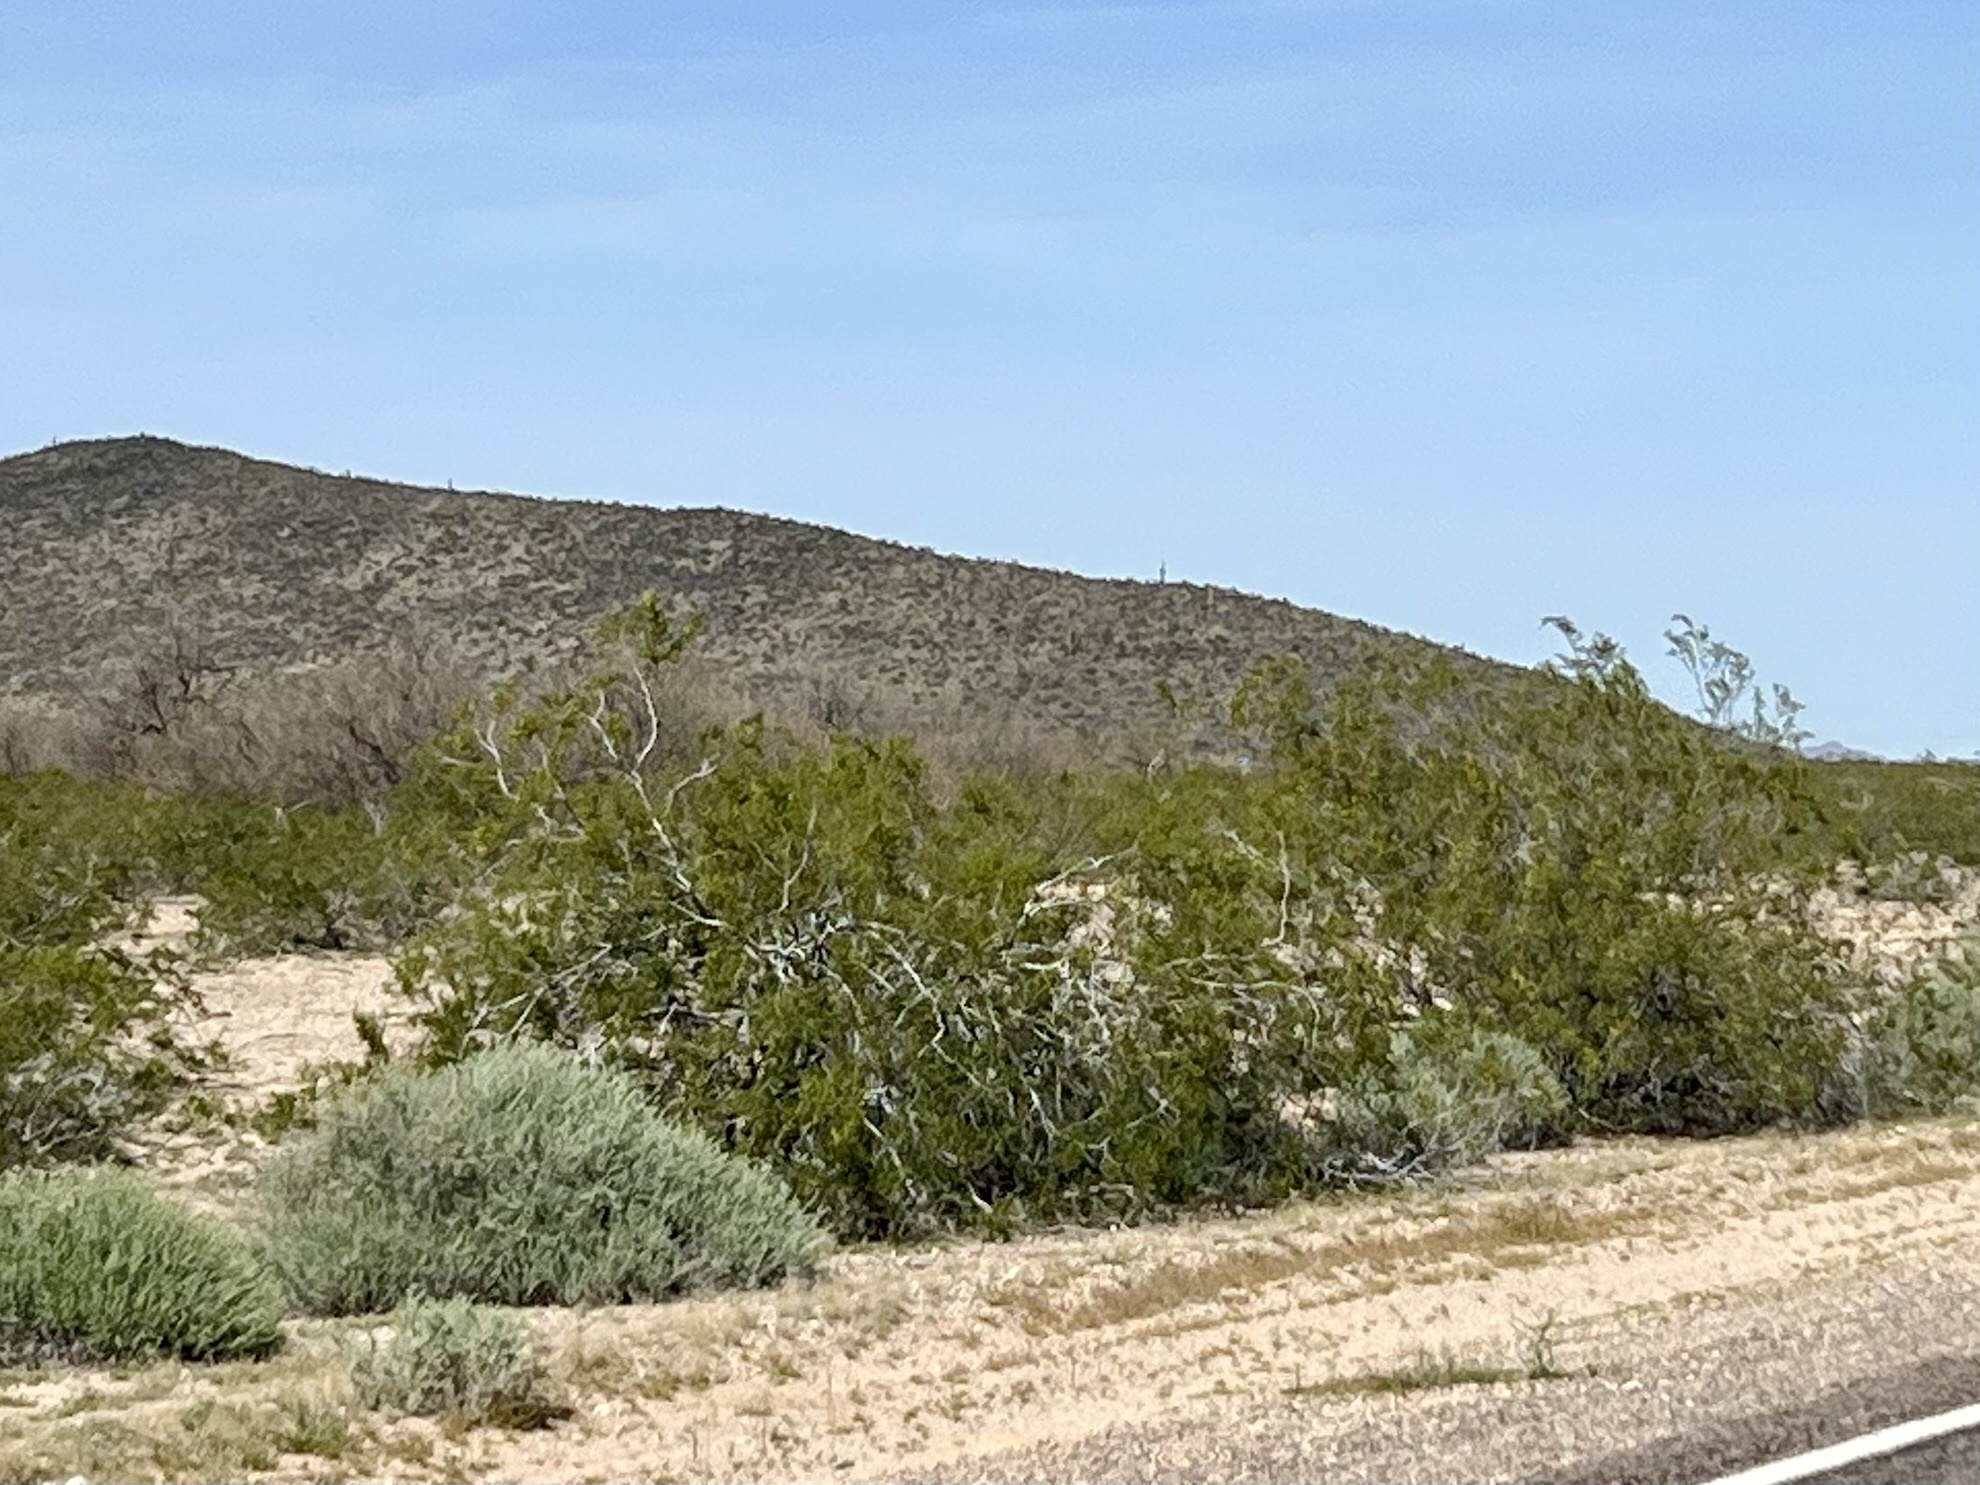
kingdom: Plantae
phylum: Tracheophyta
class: Magnoliopsida
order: Zygophyllales
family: Zygophyllaceae
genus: Larrea
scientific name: Larrea tridentata
